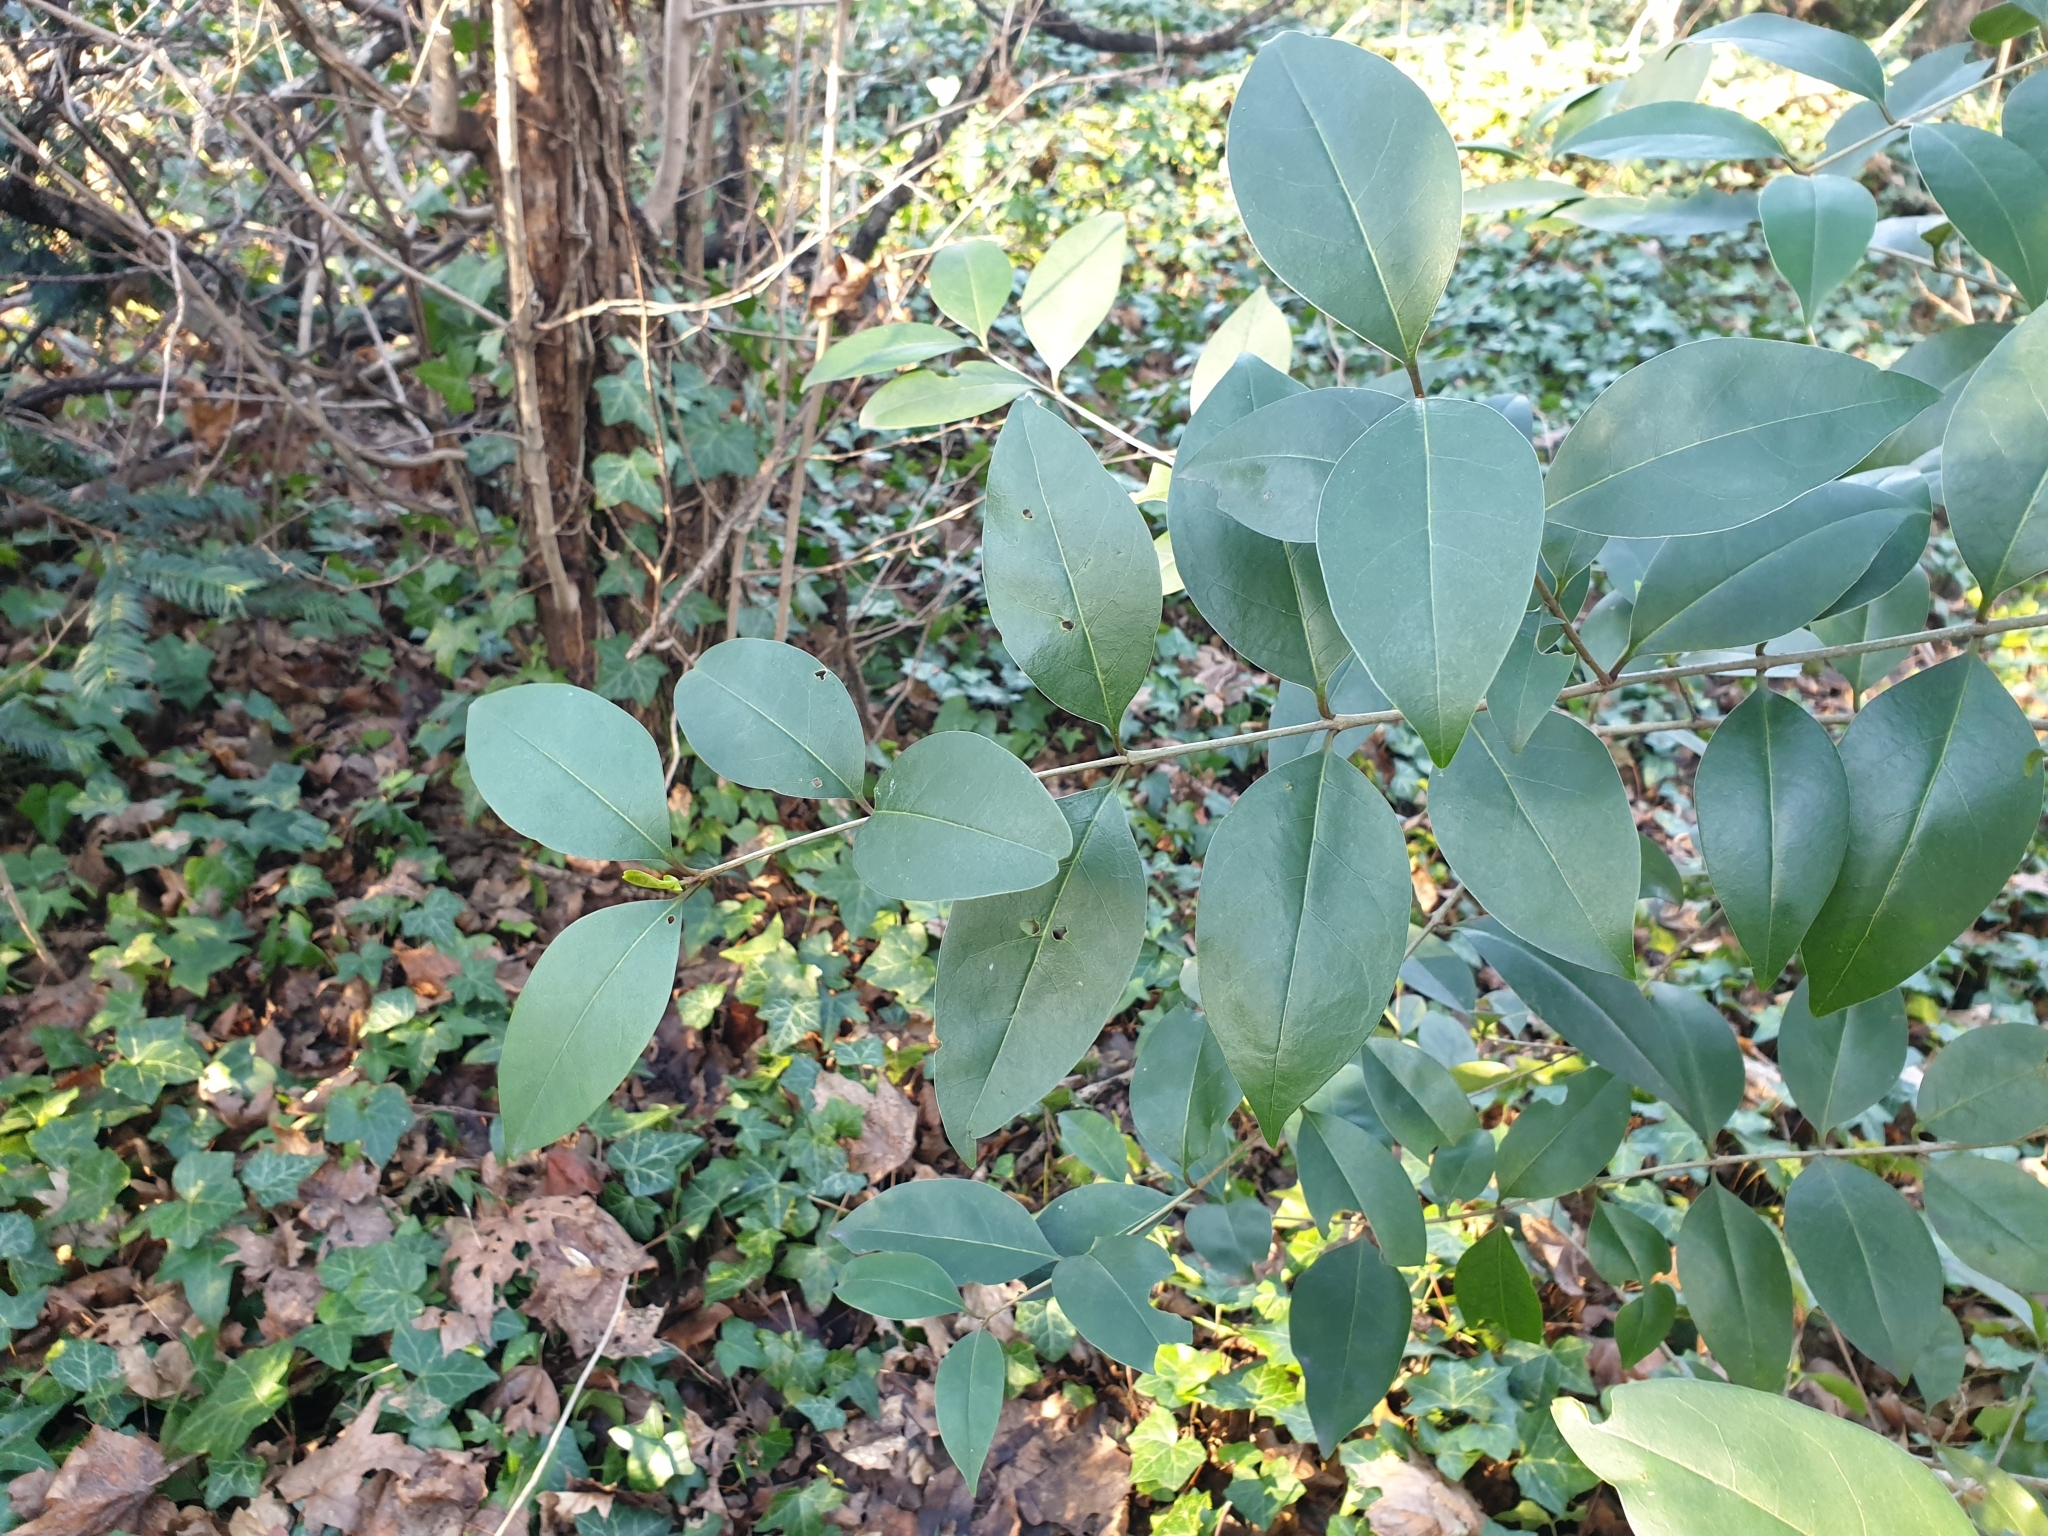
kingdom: Plantae
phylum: Tracheophyta
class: Magnoliopsida
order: Lamiales
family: Oleaceae
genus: Ligustrum
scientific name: Ligustrum lucidum
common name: Glossy privet
